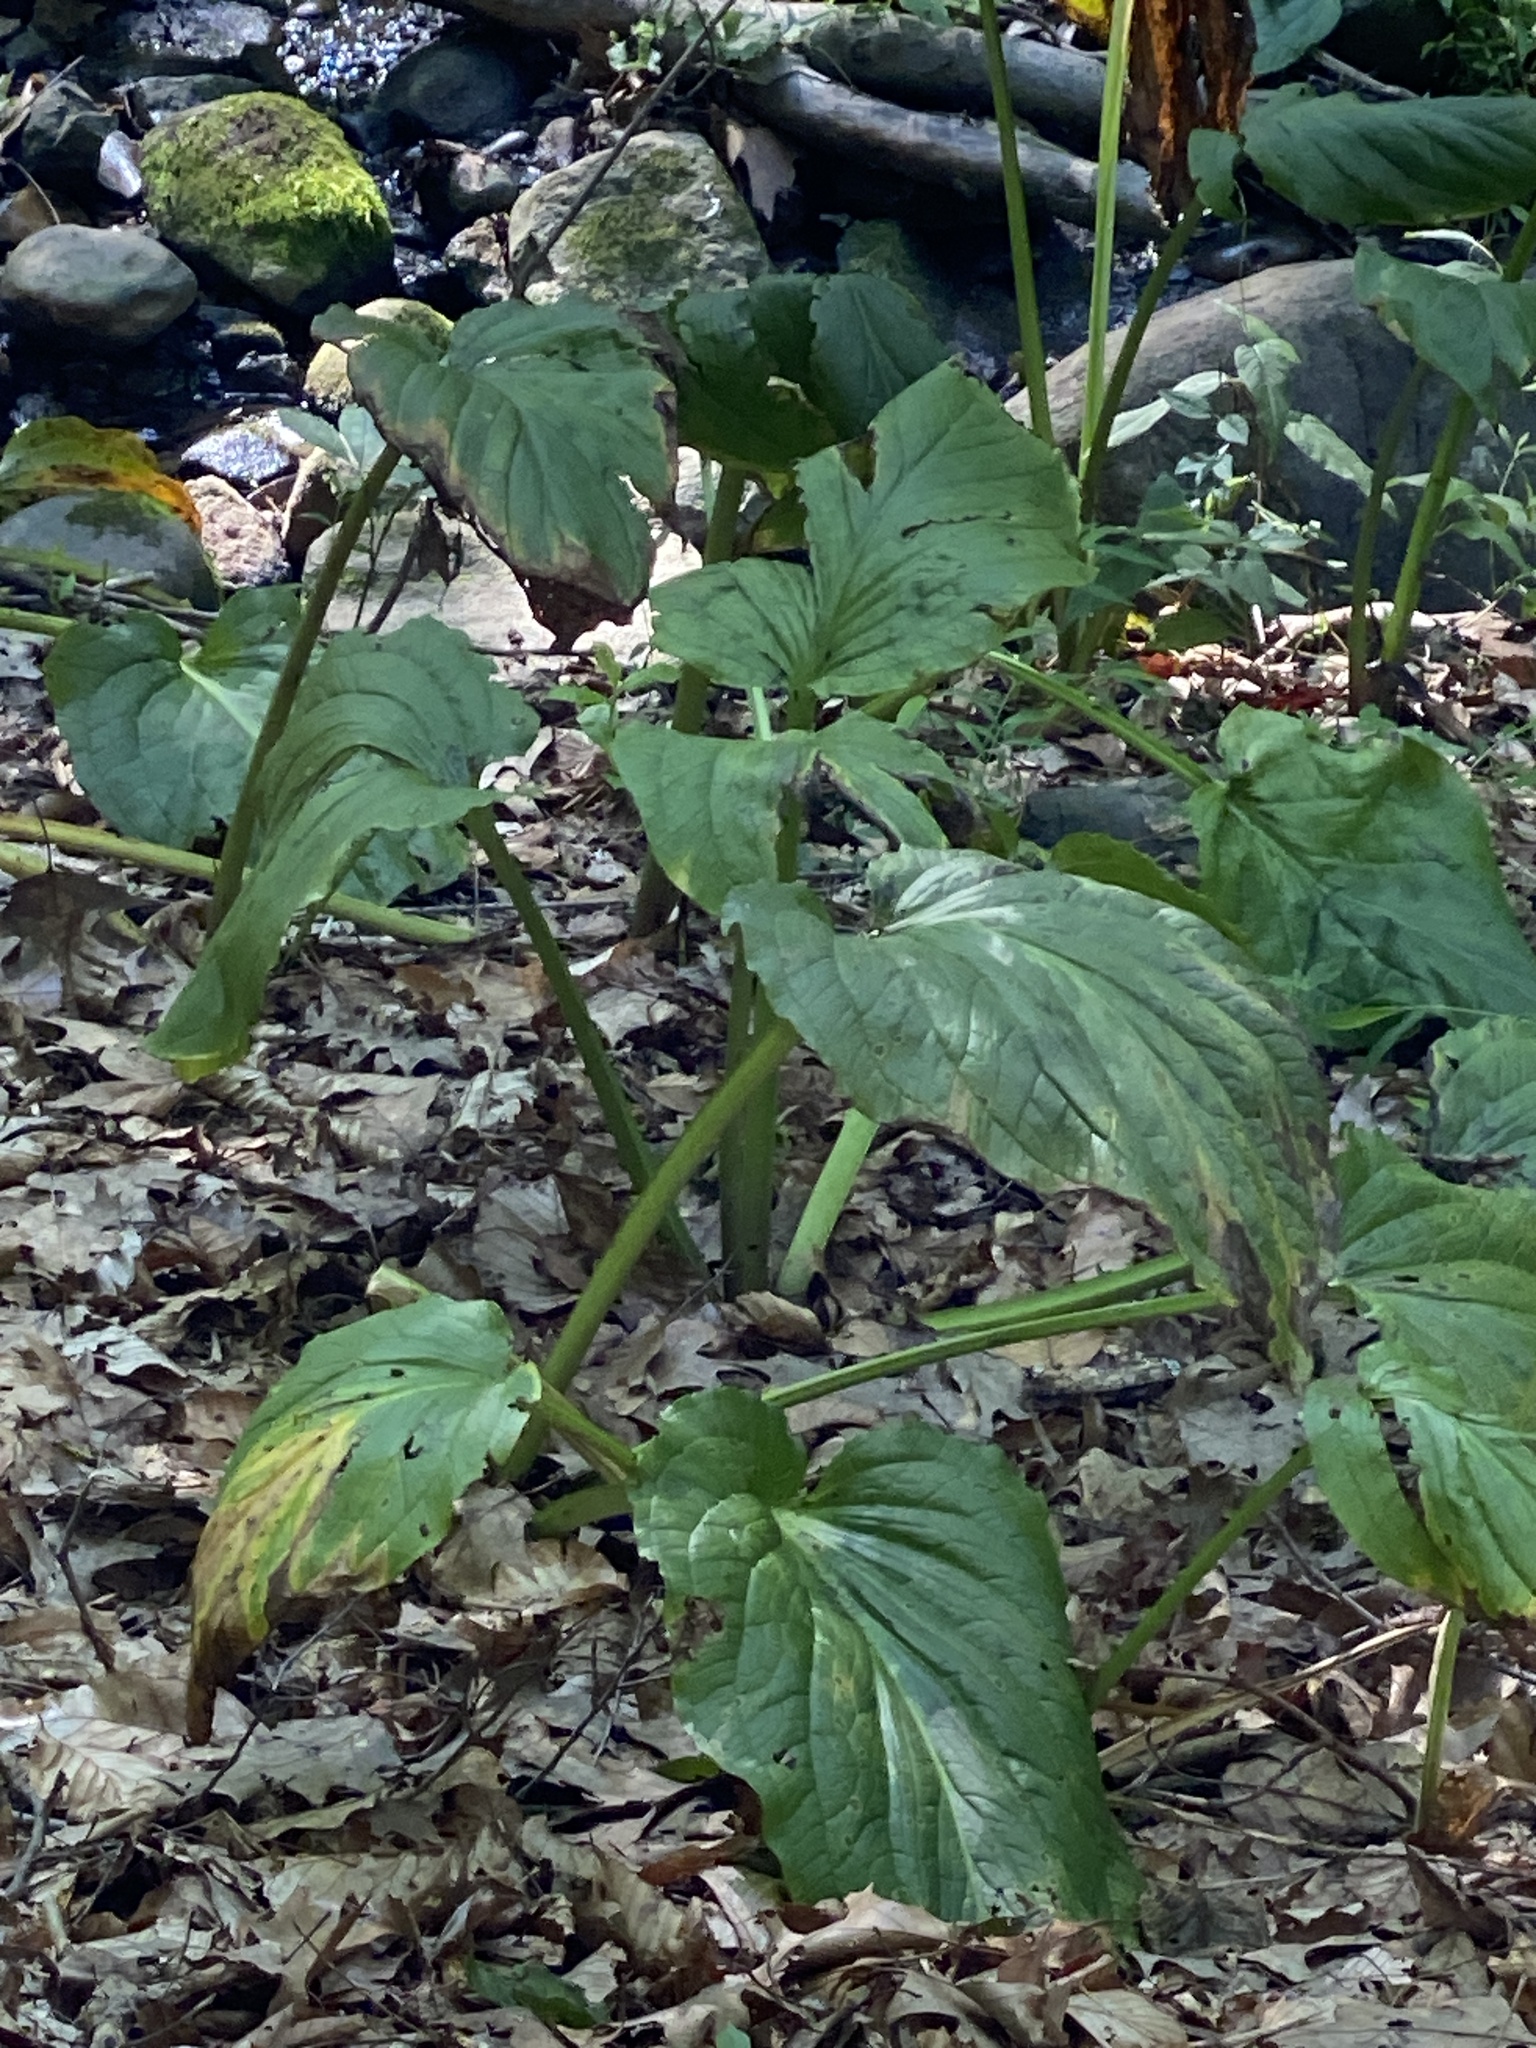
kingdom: Plantae
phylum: Tracheophyta
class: Liliopsida
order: Alismatales
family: Araceae
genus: Symplocarpus
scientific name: Symplocarpus foetidus
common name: Eastern skunk cabbage
